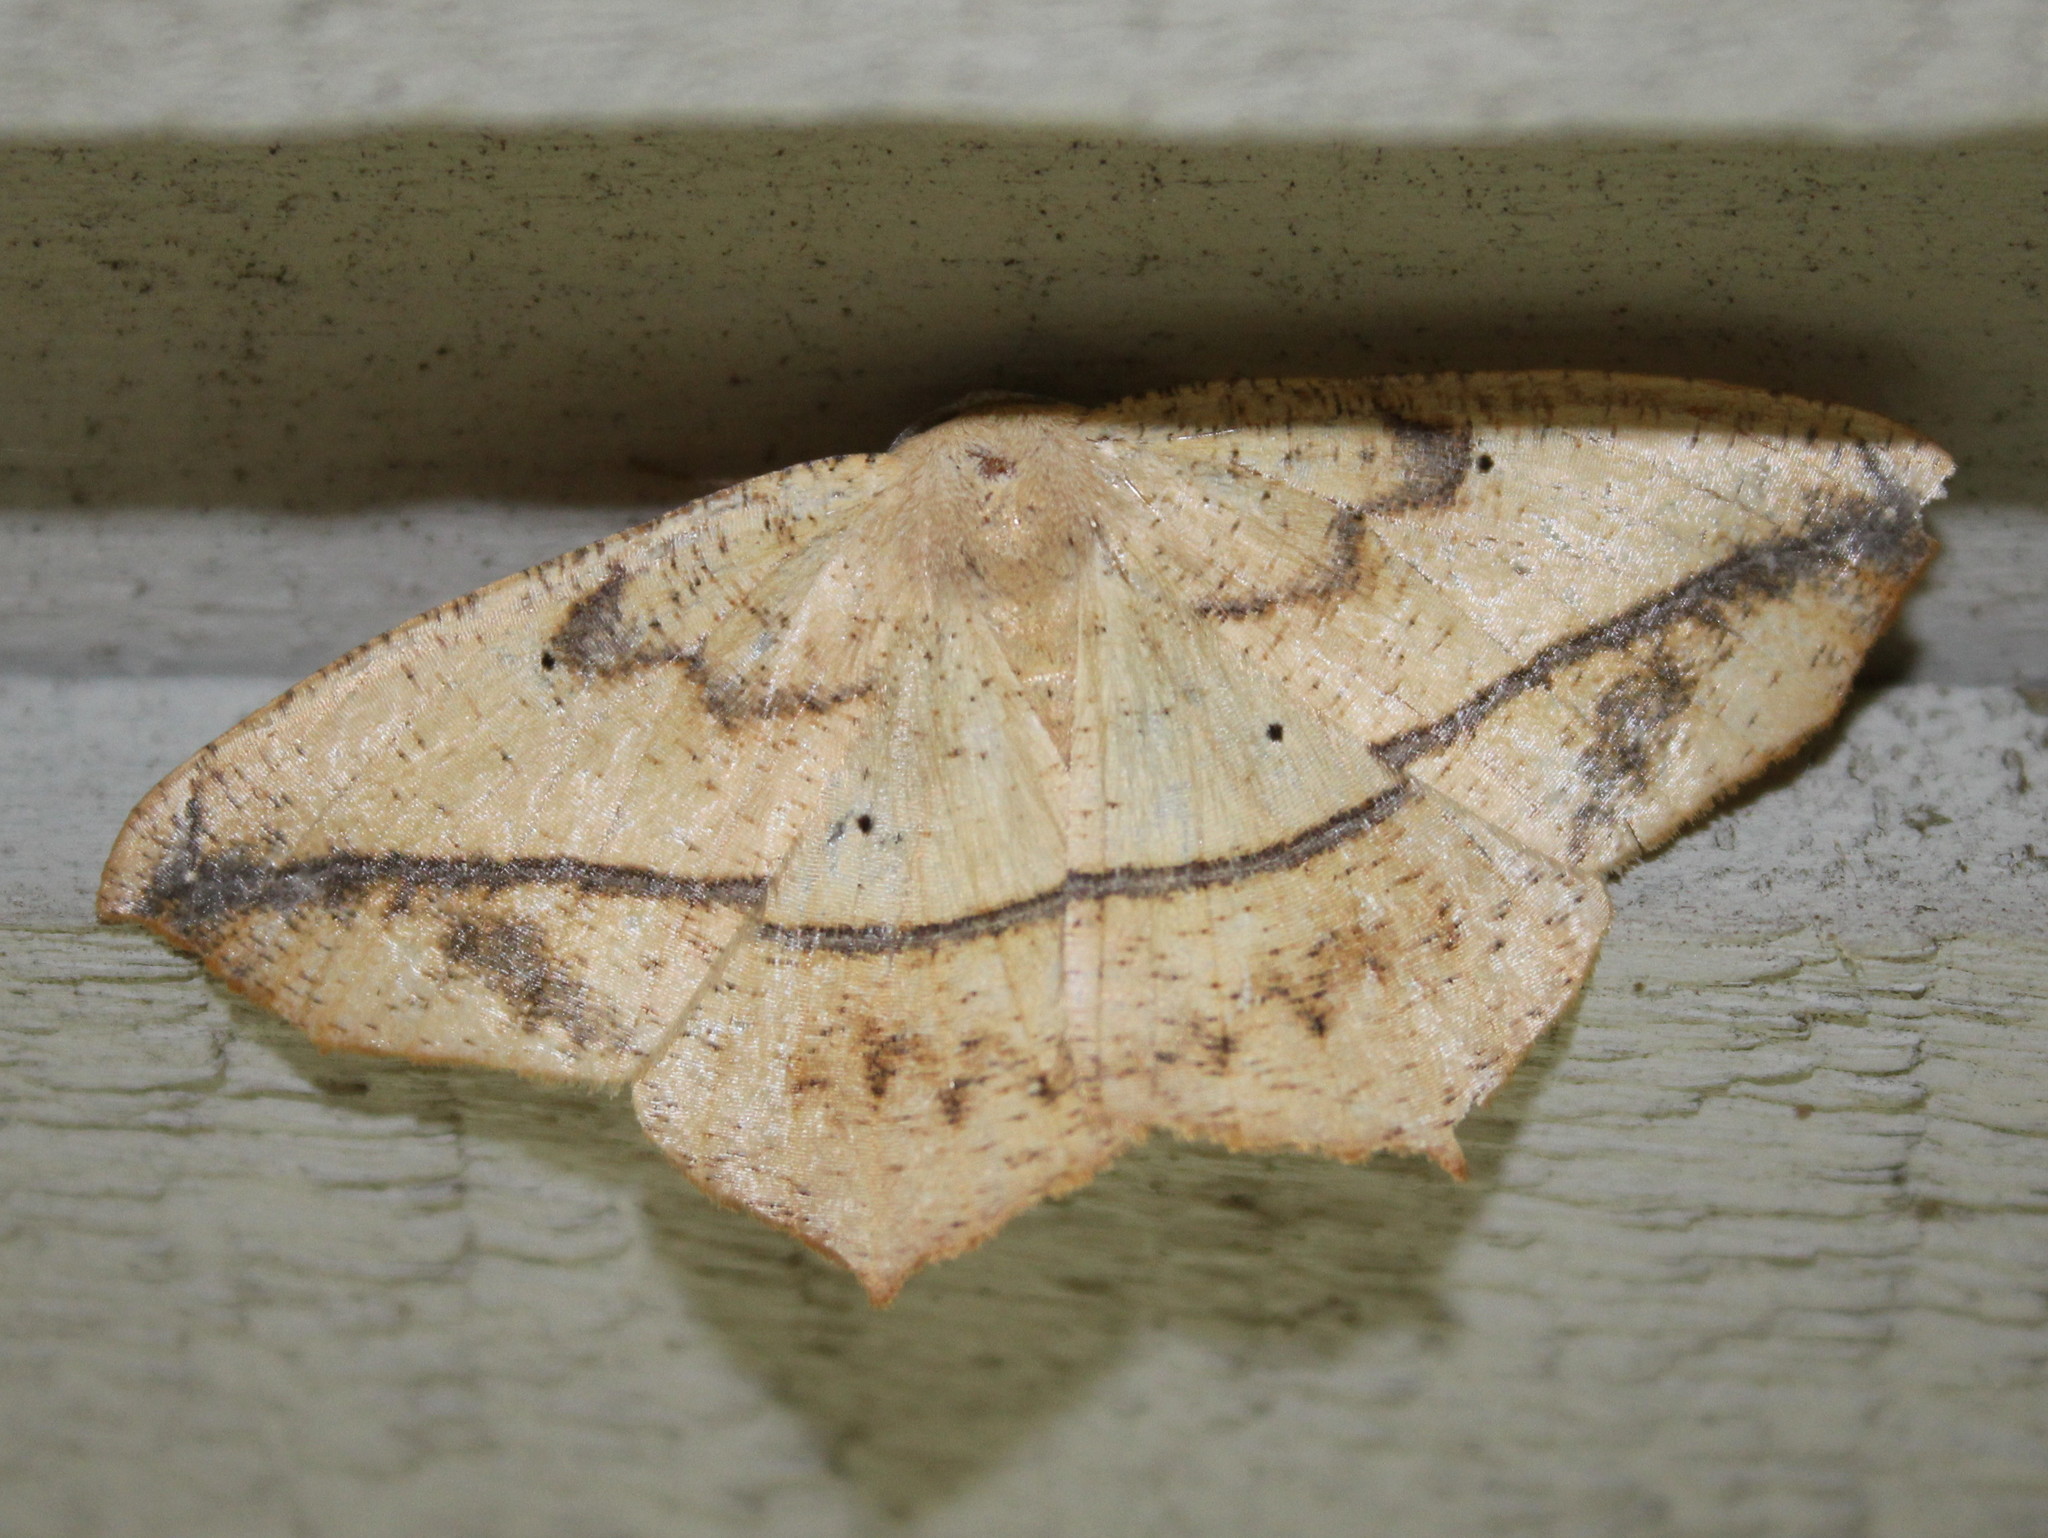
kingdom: Animalia
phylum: Arthropoda
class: Insecta
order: Lepidoptera
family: Geometridae
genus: Prochoerodes
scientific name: Prochoerodes lineola
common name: Large maple spanworm
